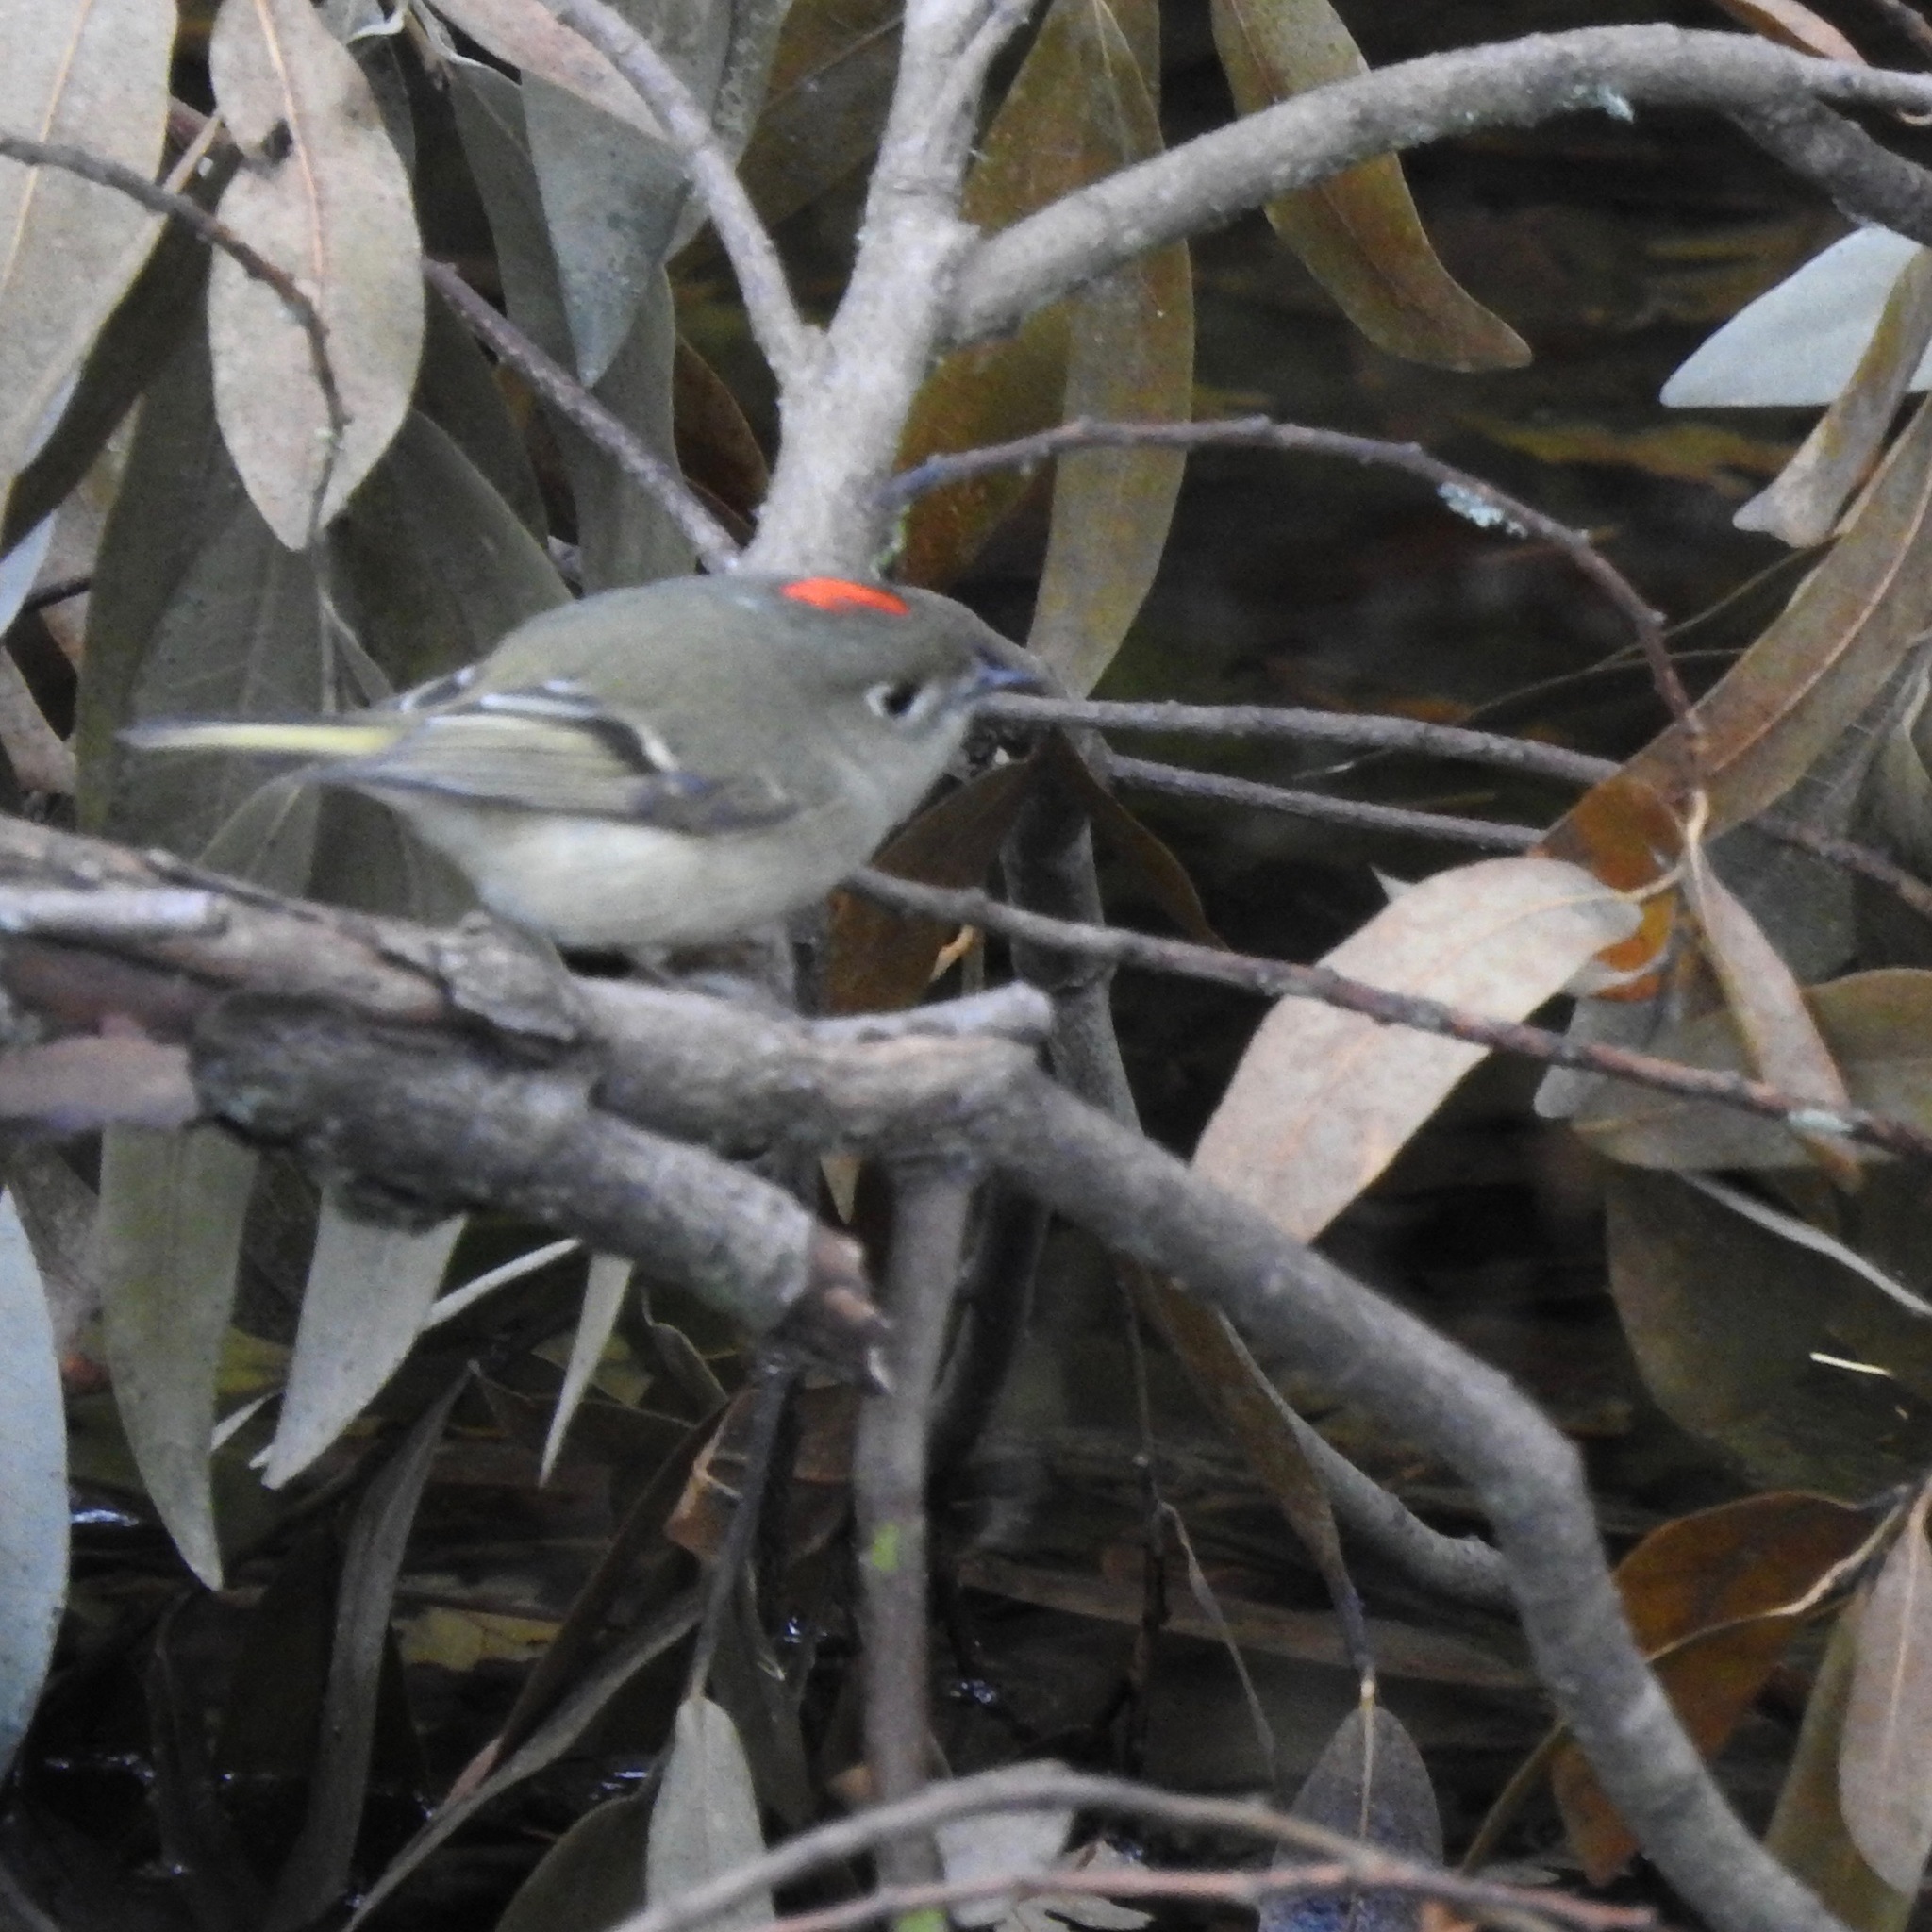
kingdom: Plantae
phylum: Tracheophyta
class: Magnoliopsida
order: Laurales
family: Lauraceae
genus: Umbellularia
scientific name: Umbellularia californica
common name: California bay
